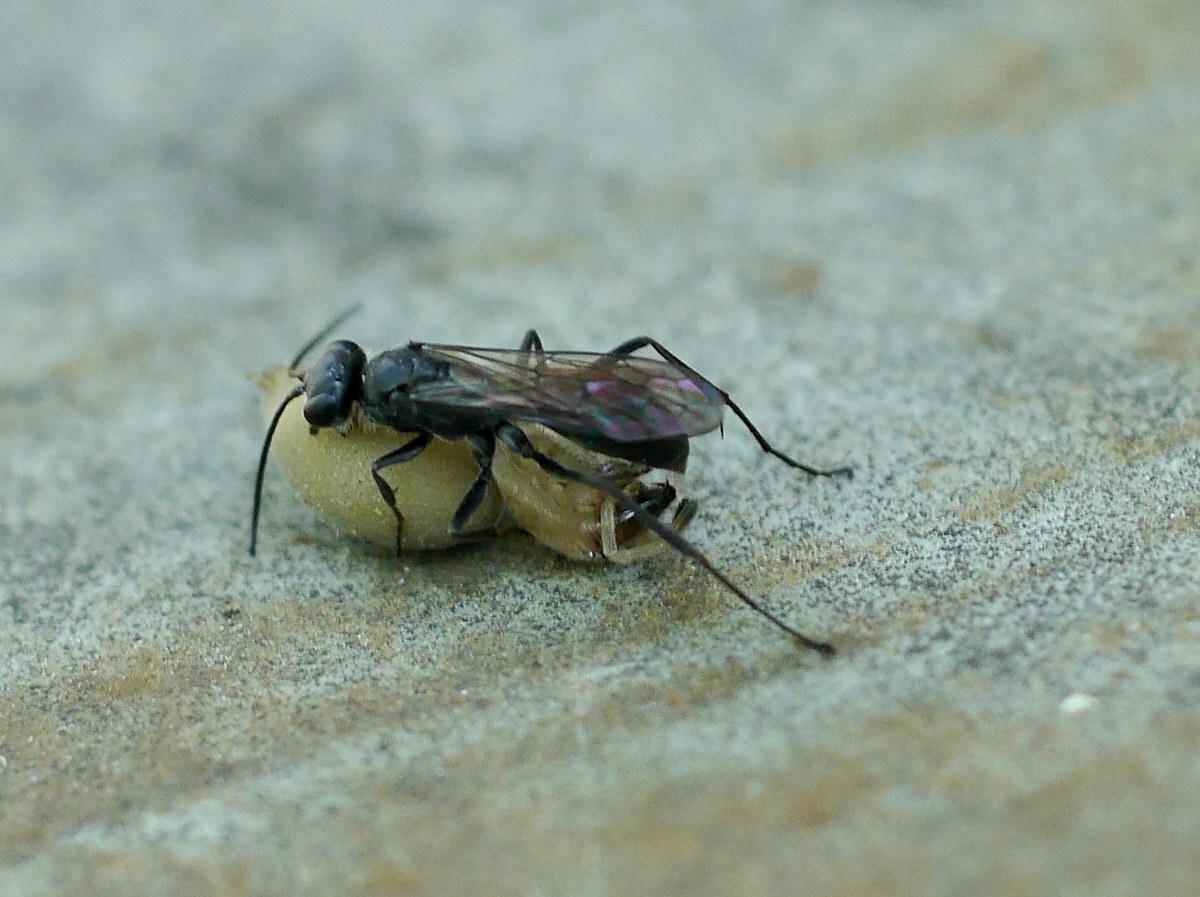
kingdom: Animalia
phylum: Arthropoda
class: Insecta
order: Hymenoptera
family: Pompilidae
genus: Auplopus
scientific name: Auplopus carbonarius
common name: Spider wasp
